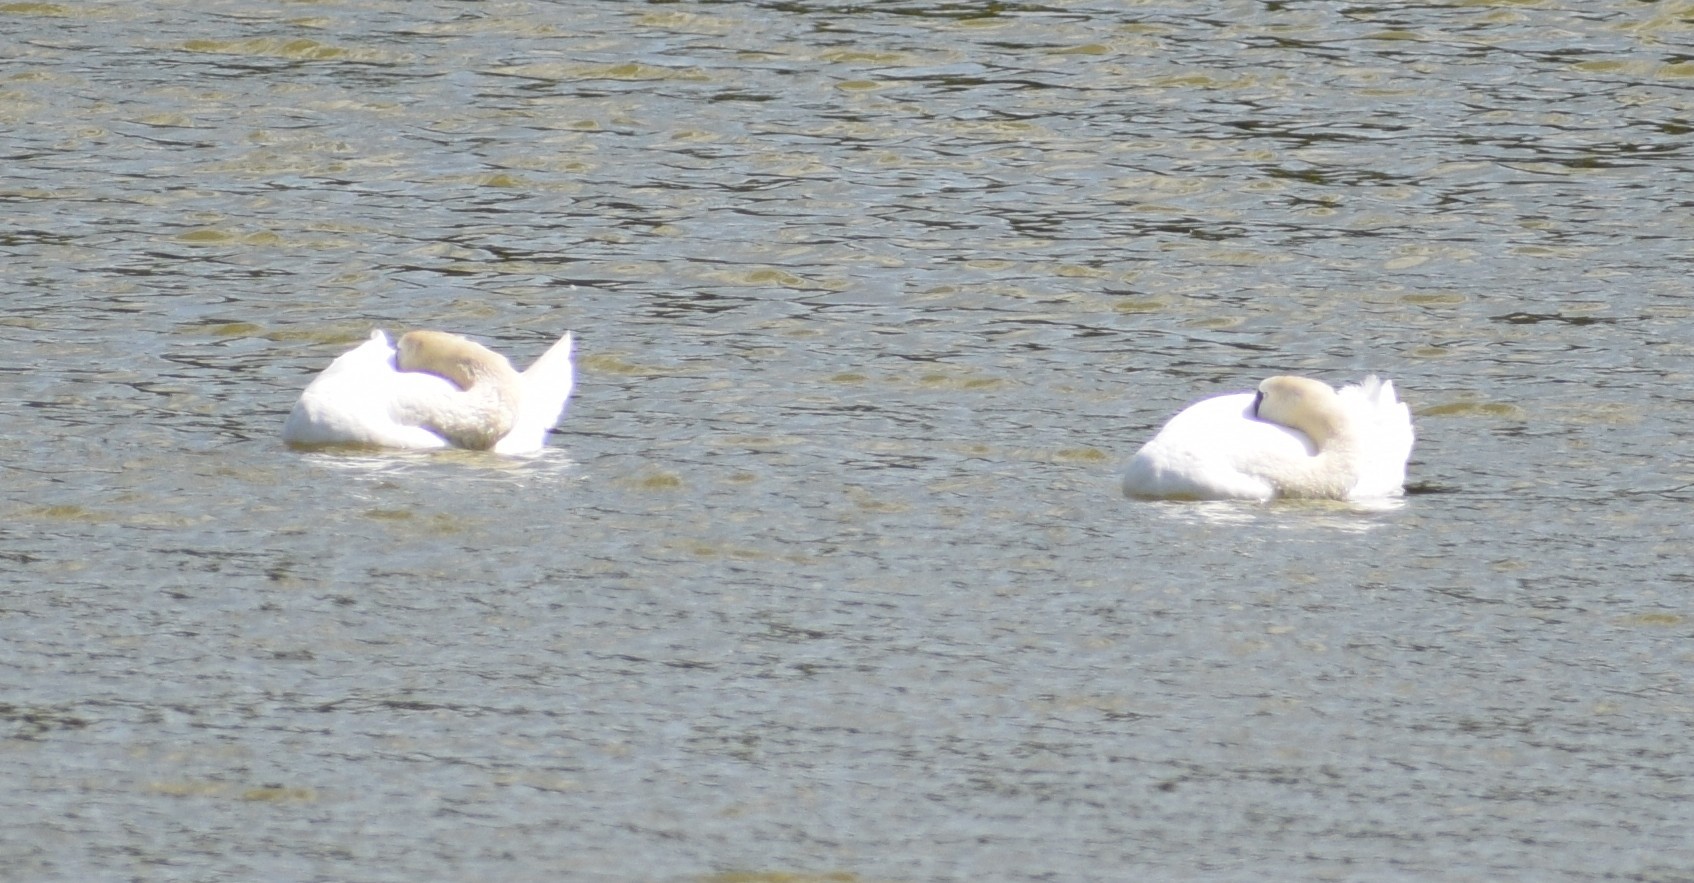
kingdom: Animalia
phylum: Chordata
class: Aves
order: Anseriformes
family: Anatidae
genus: Cygnus
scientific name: Cygnus olor
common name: Mute swan
